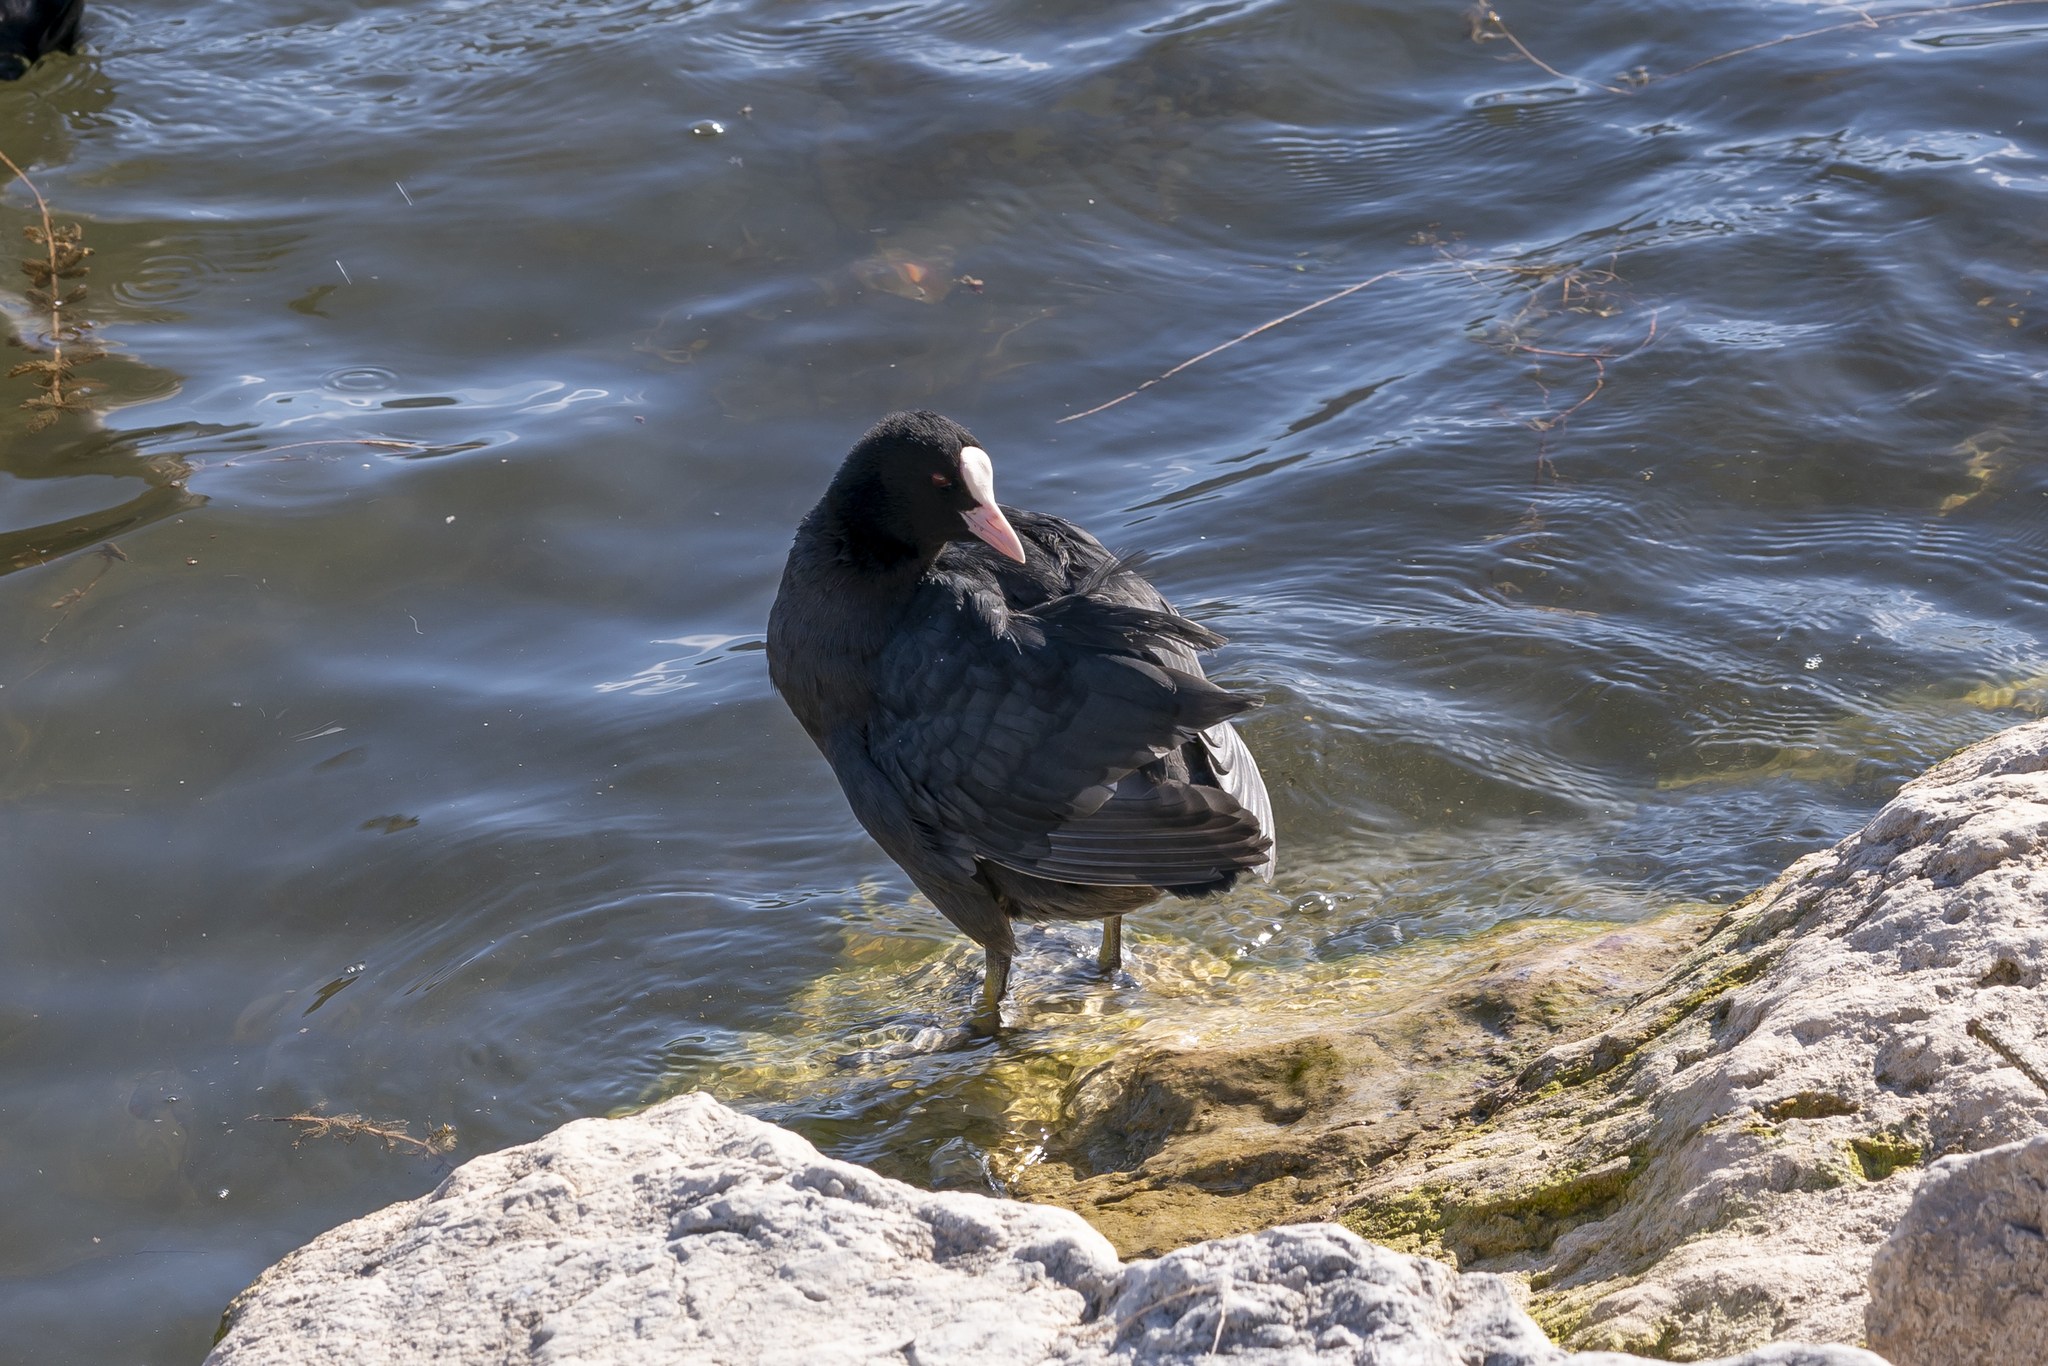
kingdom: Animalia
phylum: Chordata
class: Aves
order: Gruiformes
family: Rallidae
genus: Fulica
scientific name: Fulica atra
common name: Eurasian coot
